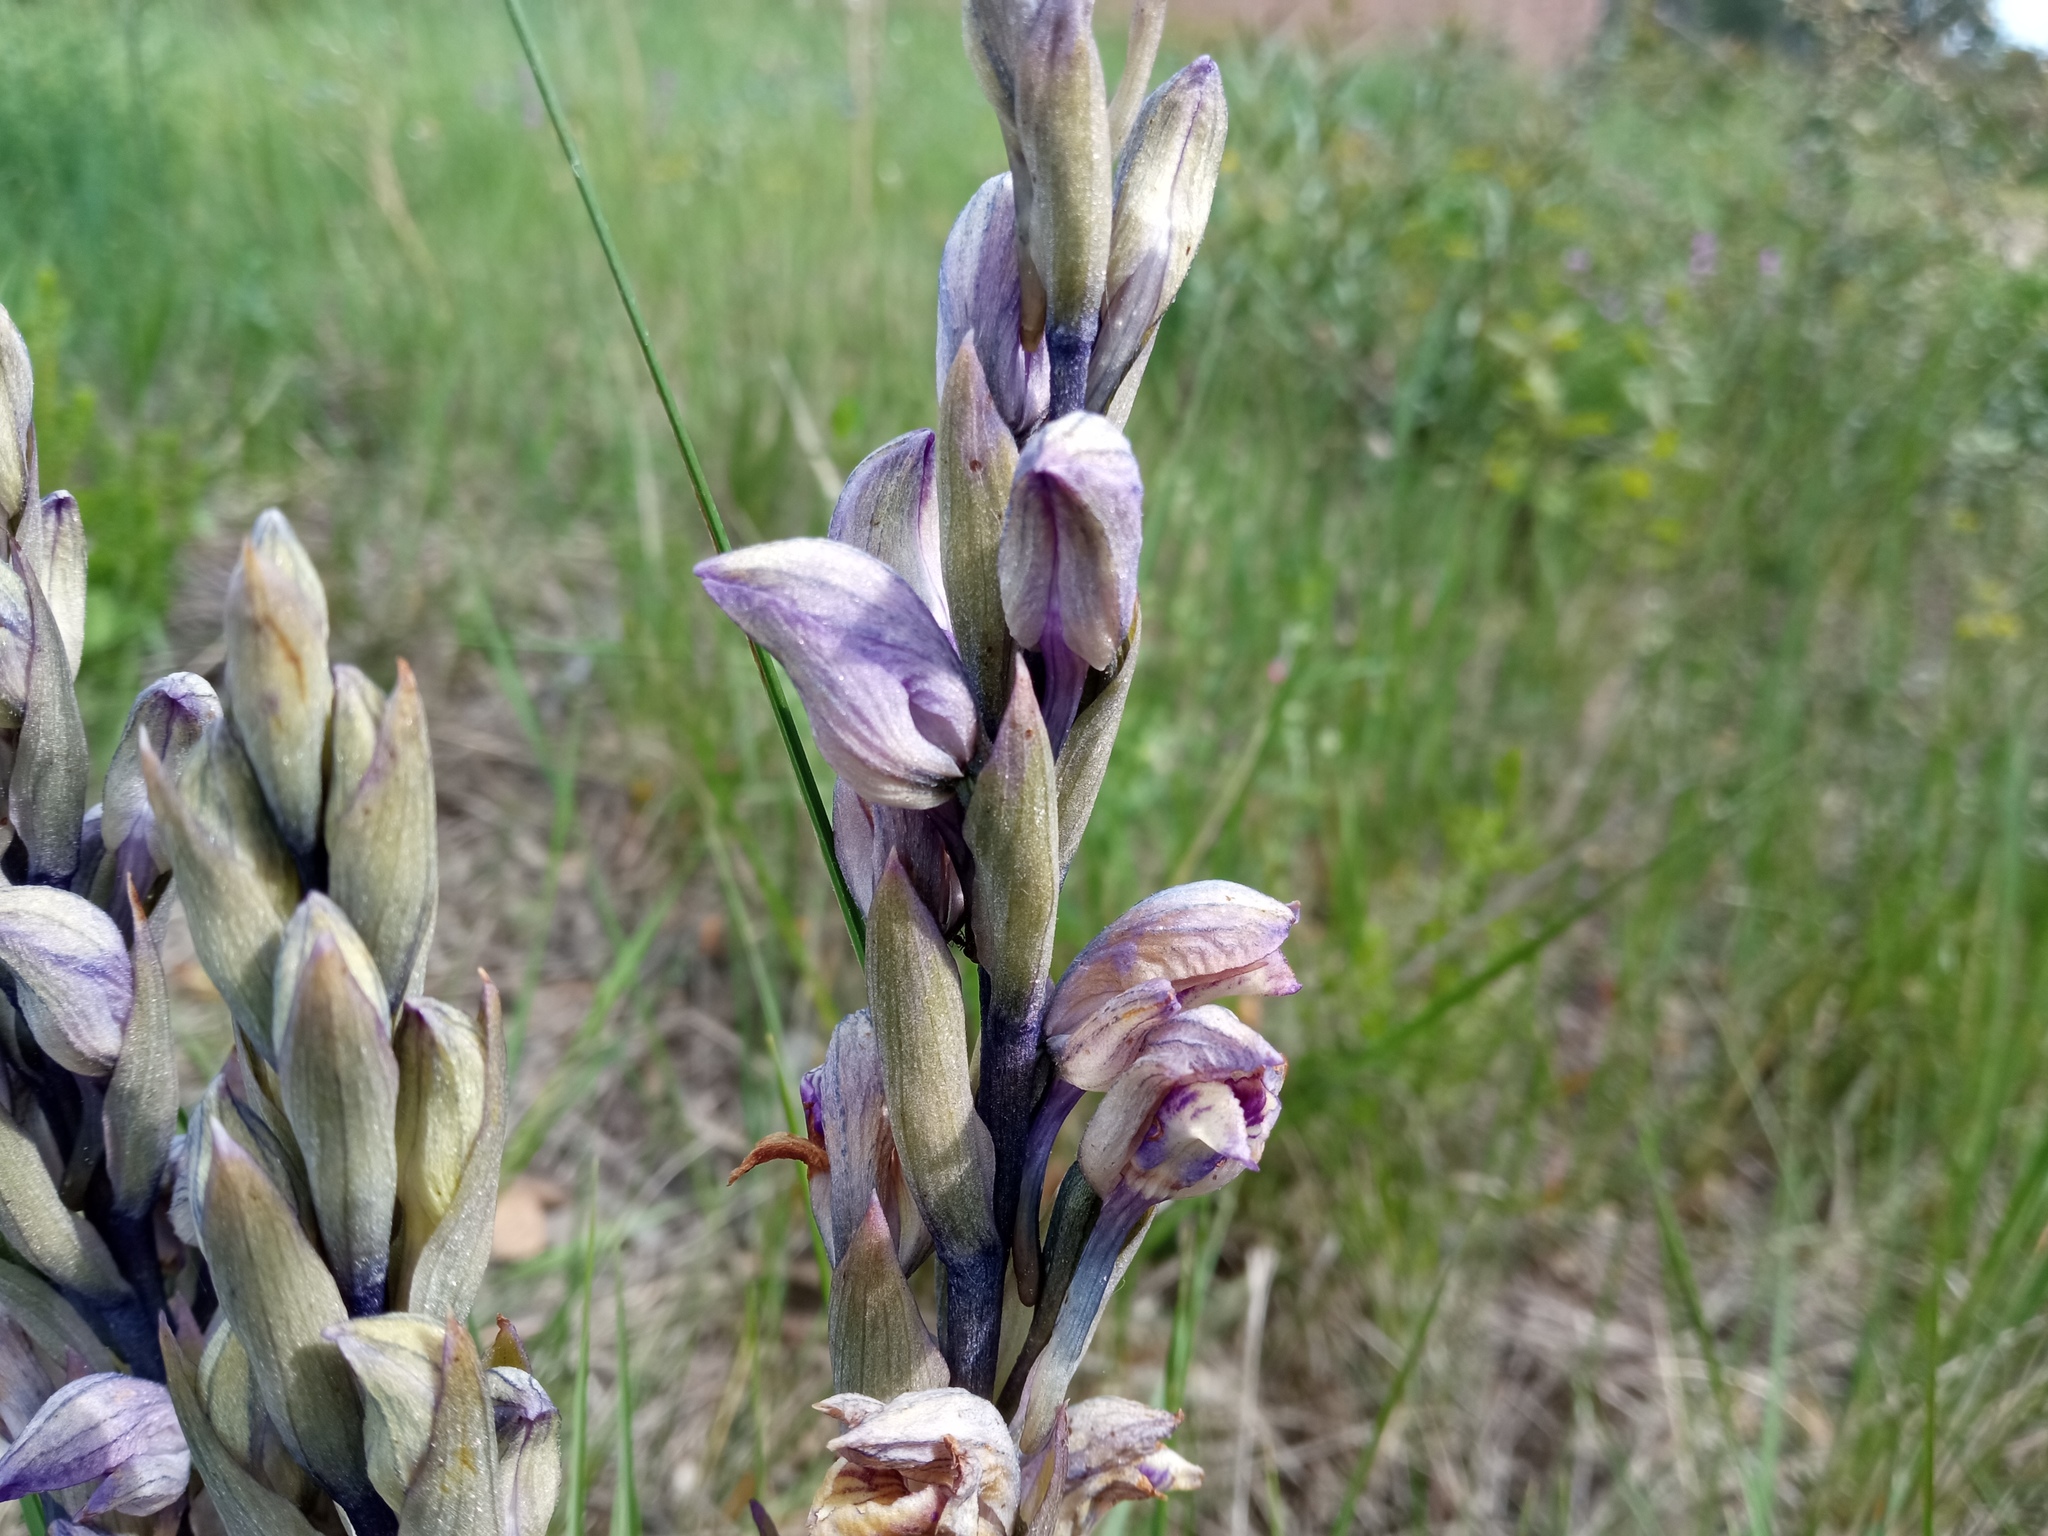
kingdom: Plantae
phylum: Tracheophyta
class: Liliopsida
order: Asparagales
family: Orchidaceae
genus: Limodorum
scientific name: Limodorum abortivum
